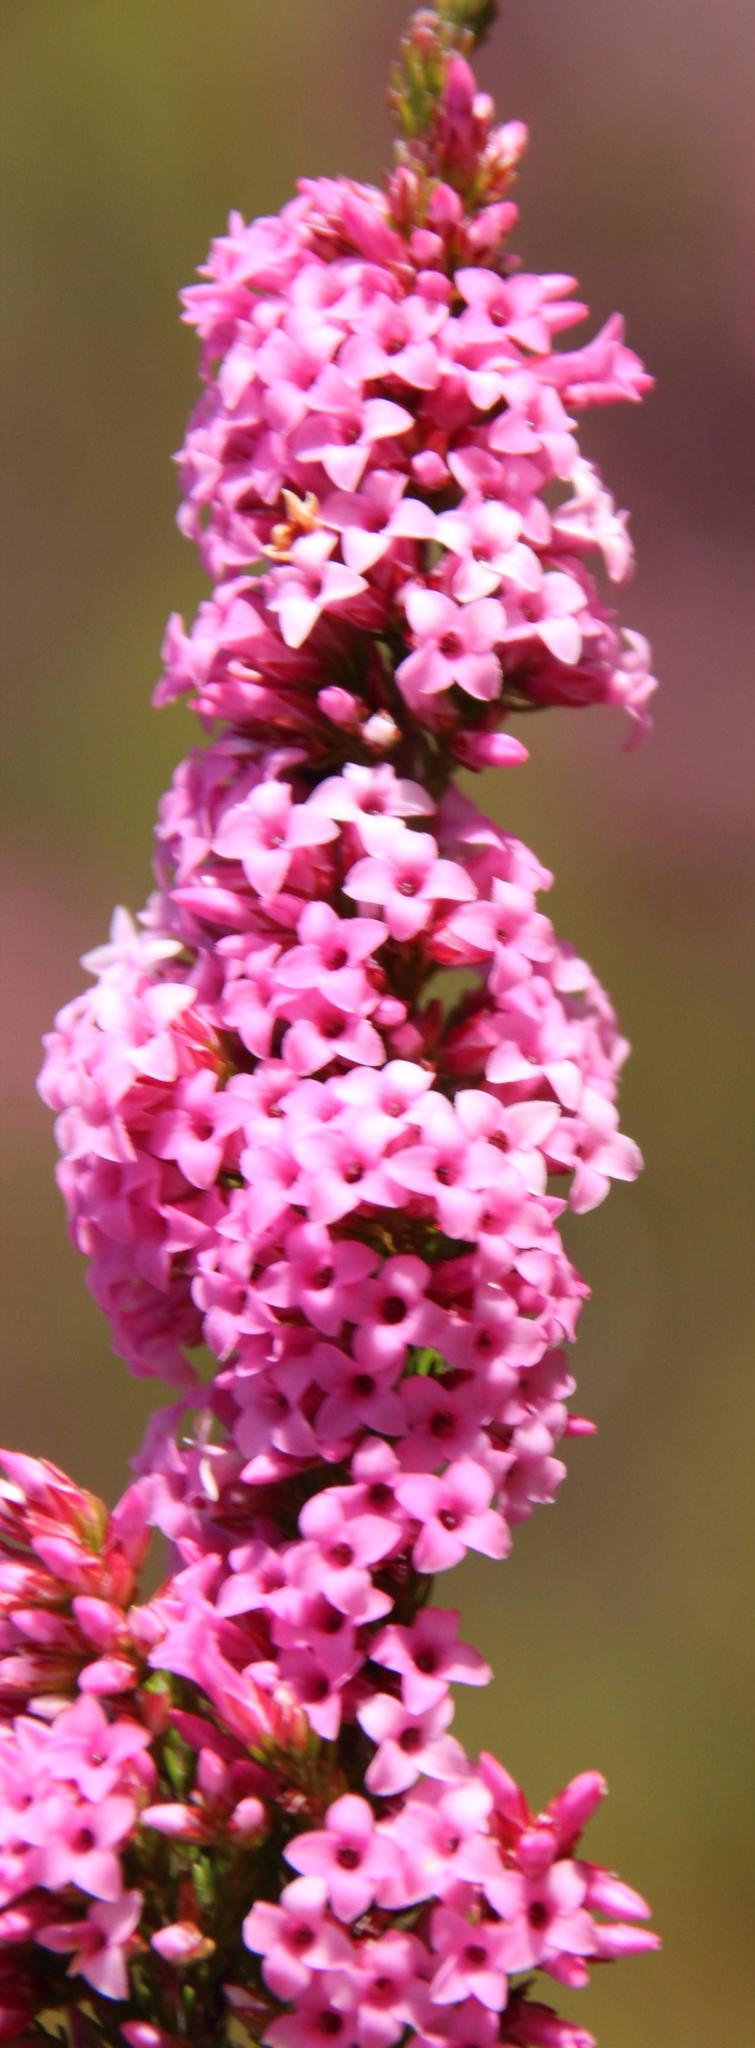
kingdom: Plantae
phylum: Tracheophyta
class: Magnoliopsida
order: Ericales
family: Ericaceae
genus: Erica
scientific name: Erica
